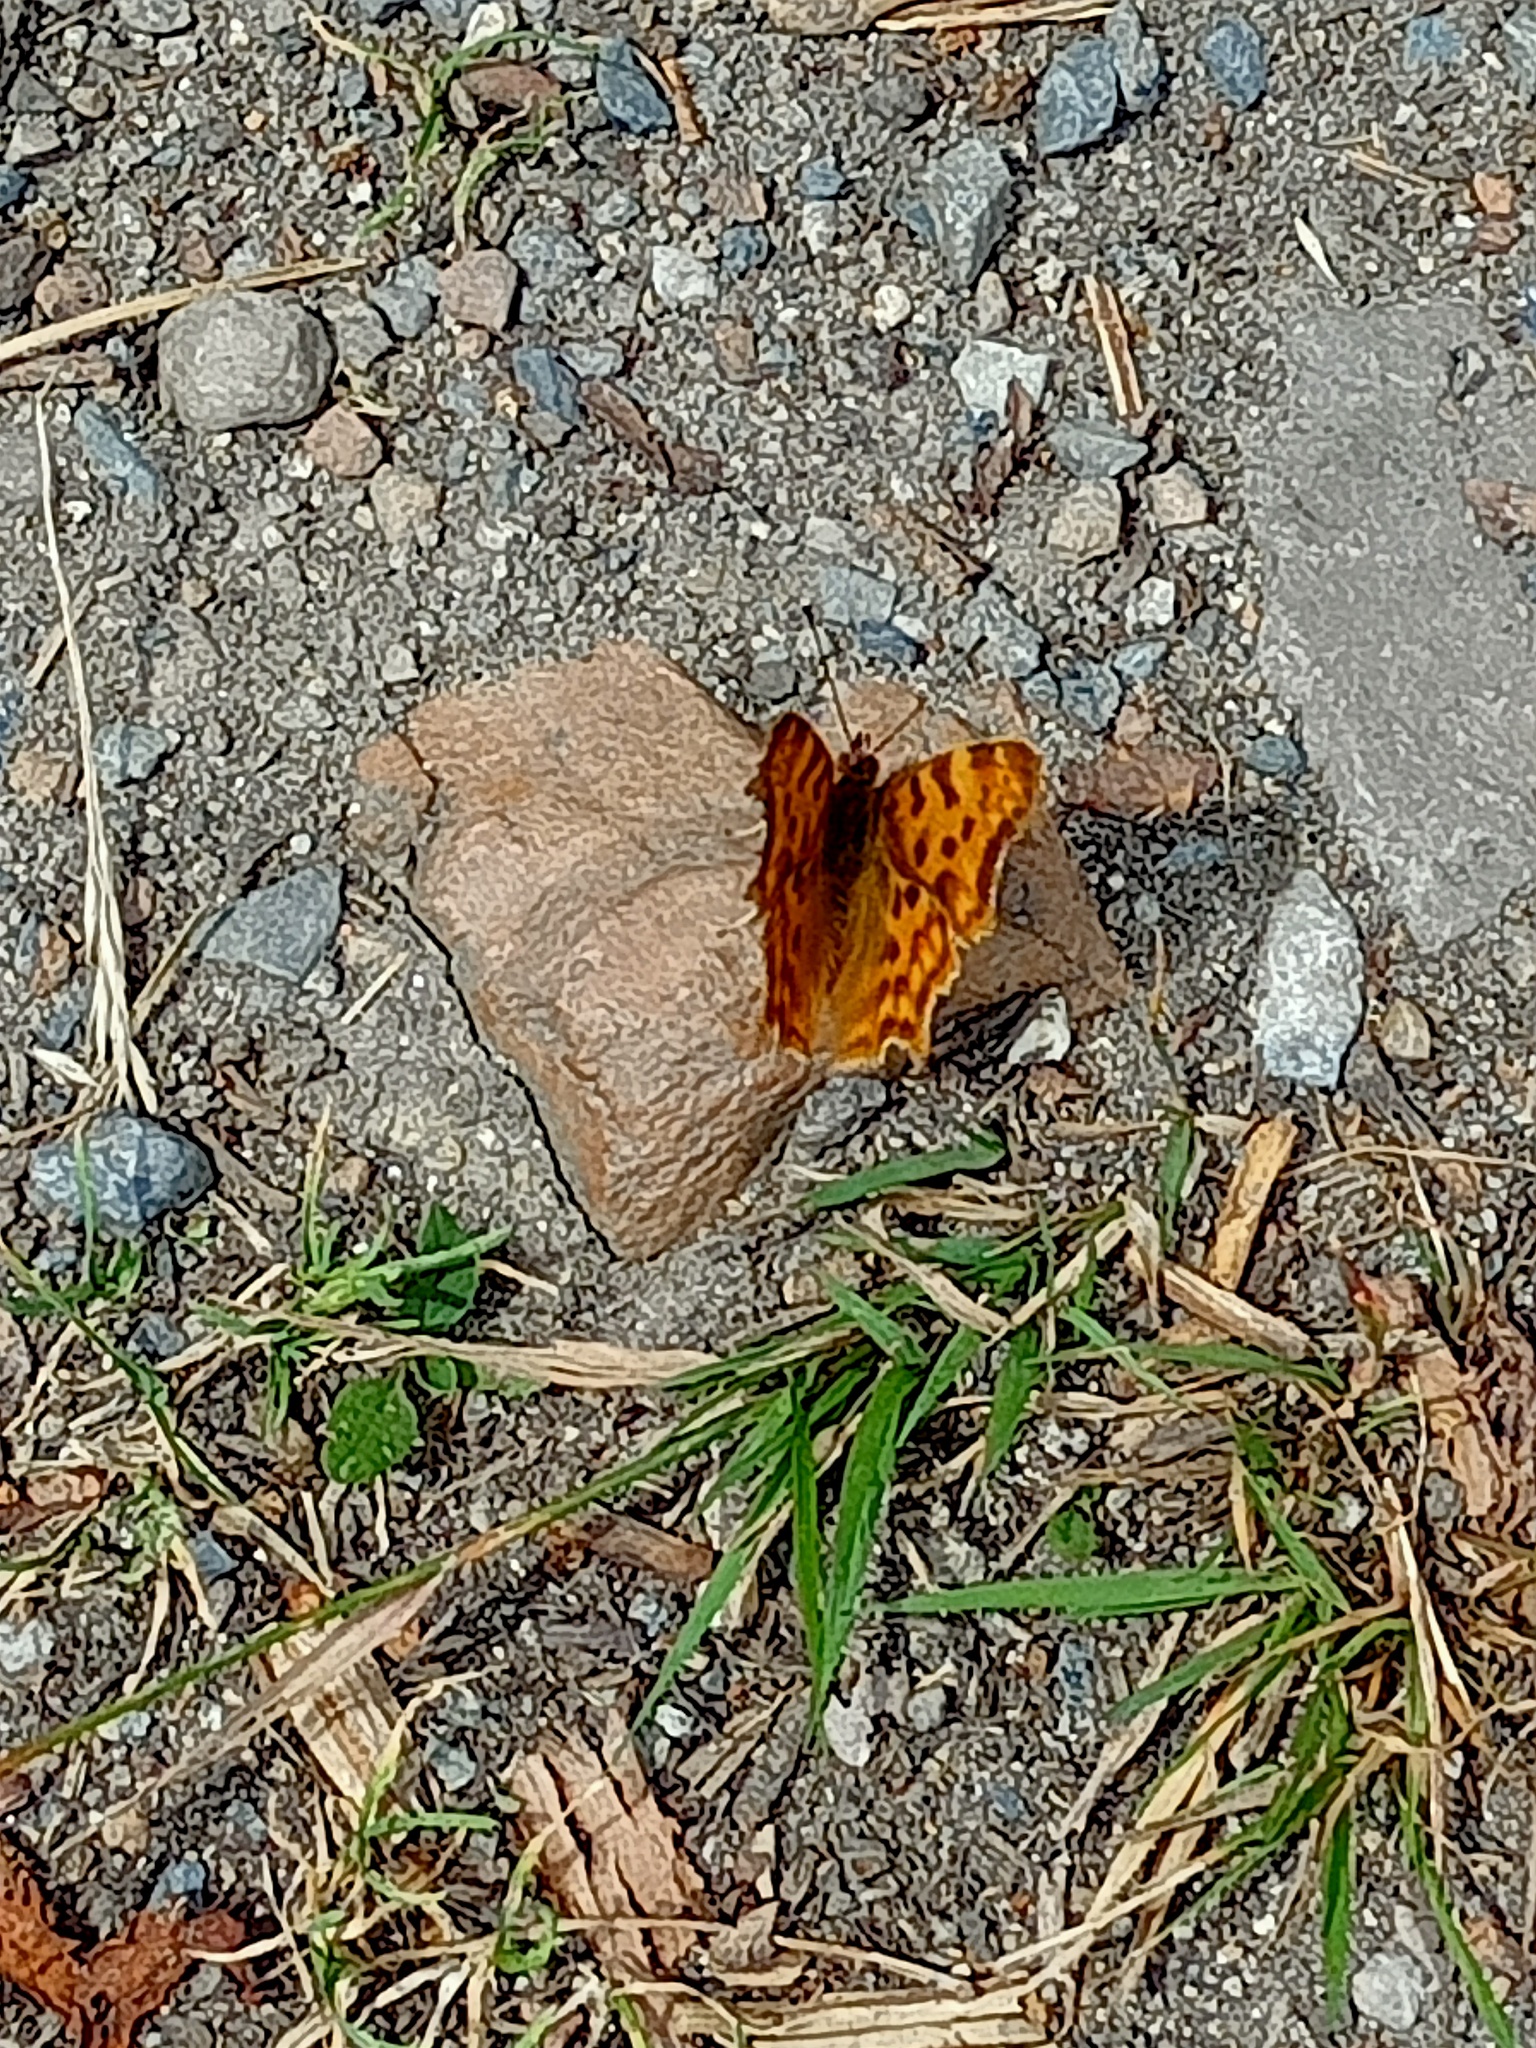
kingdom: Animalia
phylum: Arthropoda
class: Insecta
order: Lepidoptera
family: Nymphalidae
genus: Polygonia
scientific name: Polygonia c-album
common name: Comma
